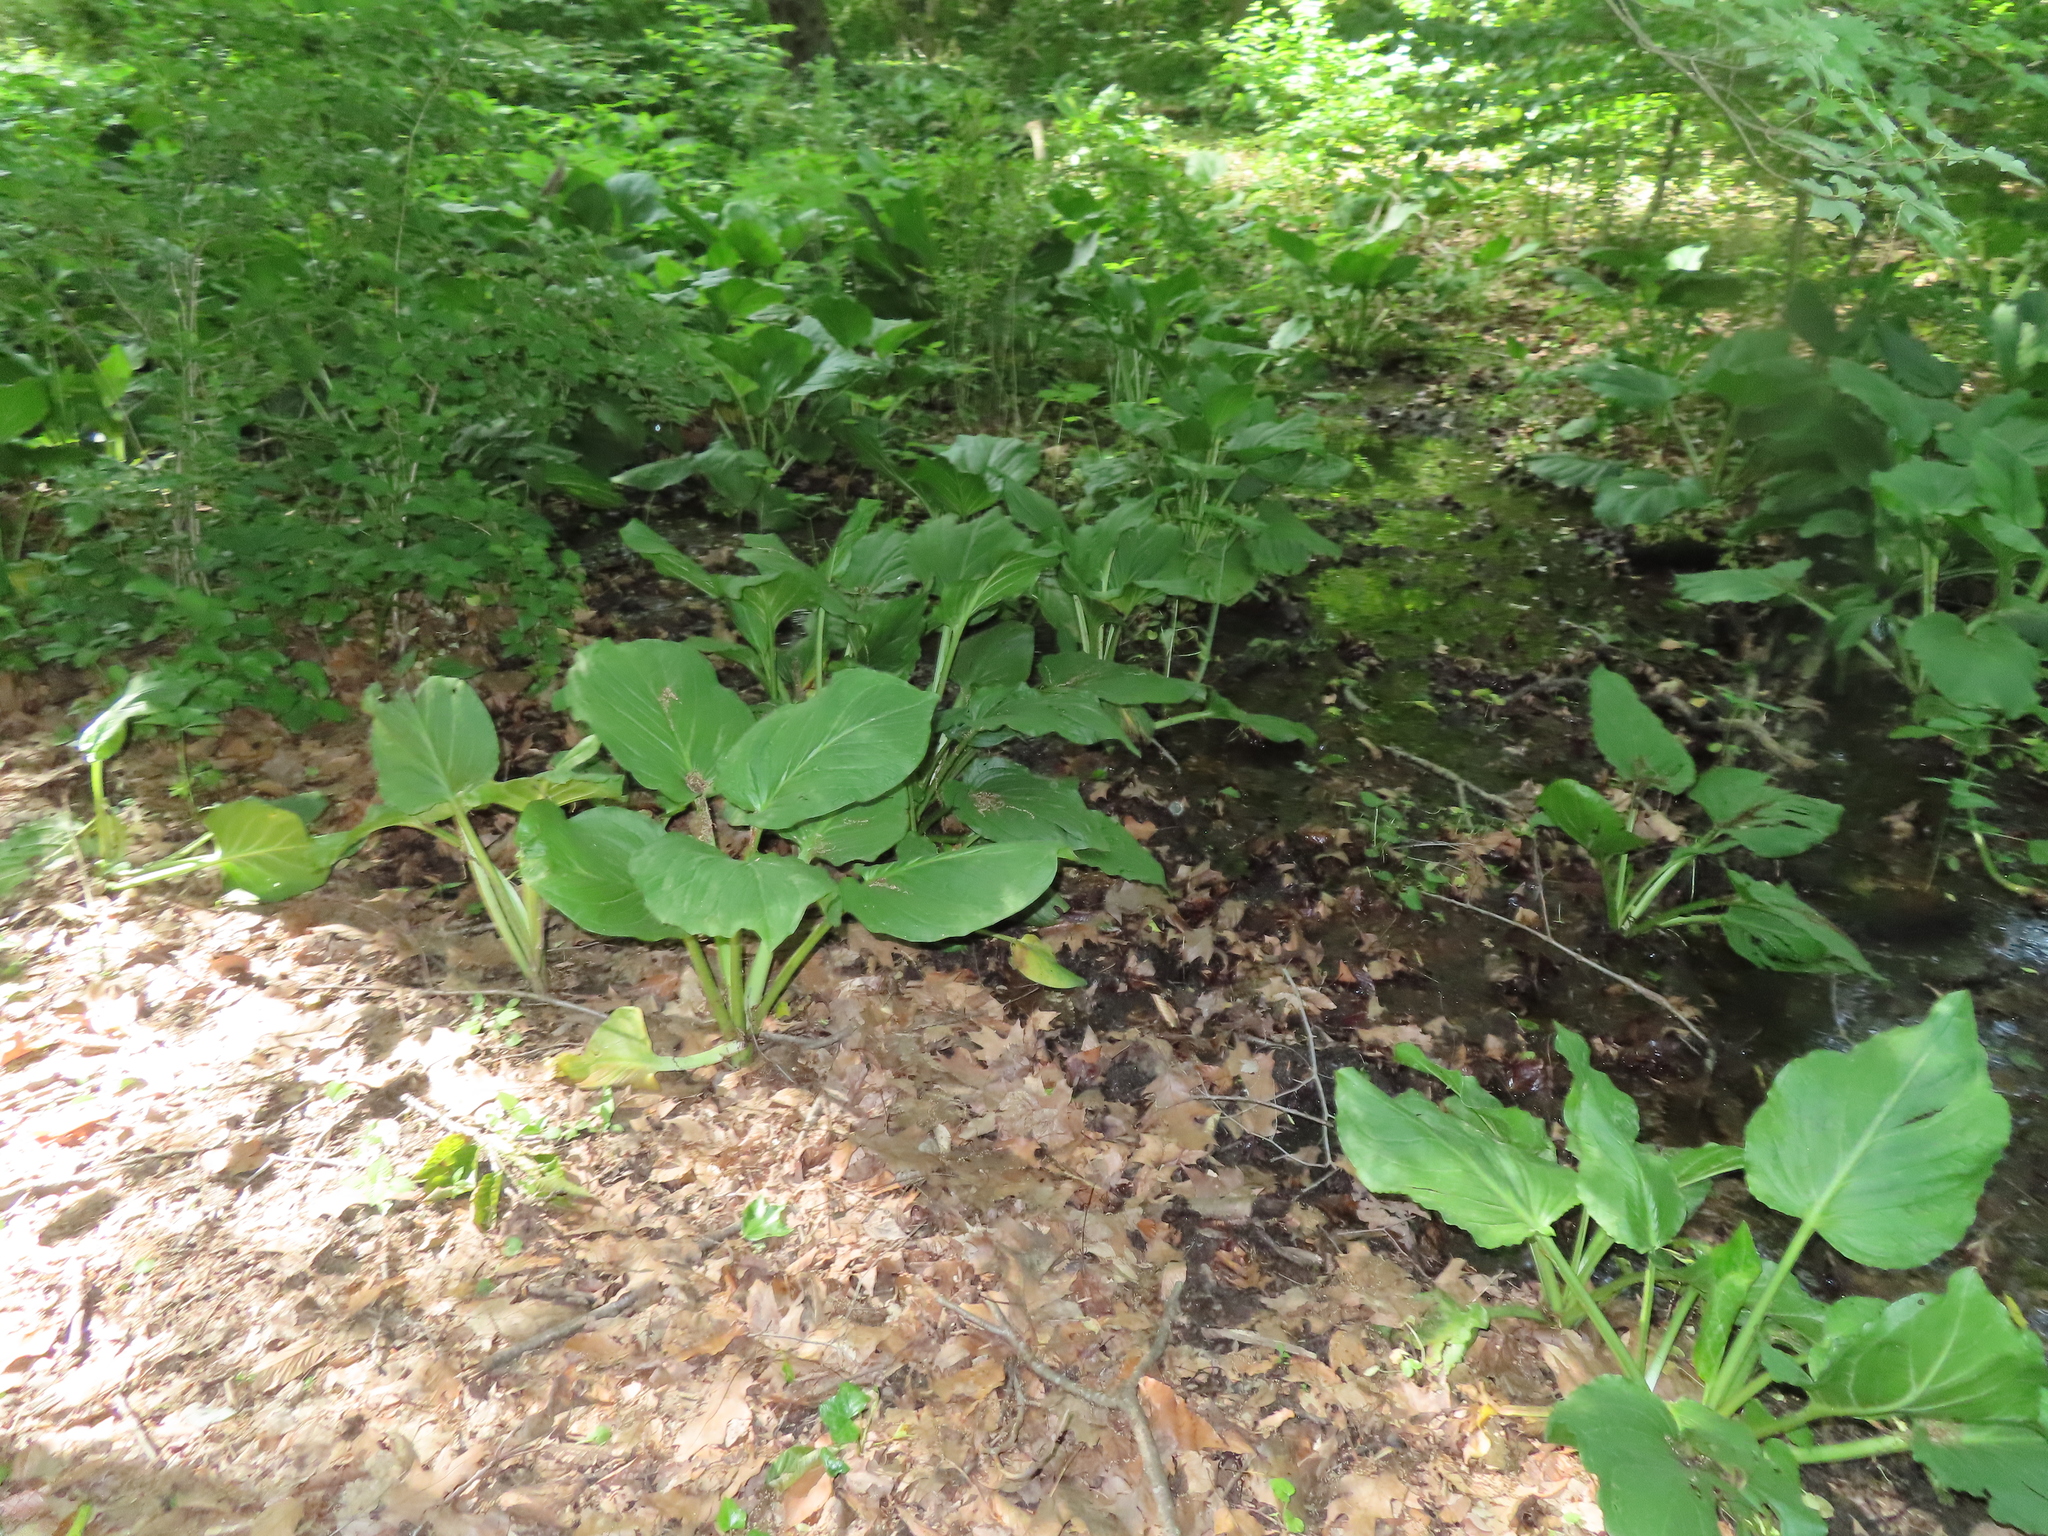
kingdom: Plantae
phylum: Tracheophyta
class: Liliopsida
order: Alismatales
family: Araceae
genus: Symplocarpus
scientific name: Symplocarpus foetidus
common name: Eastern skunk cabbage
